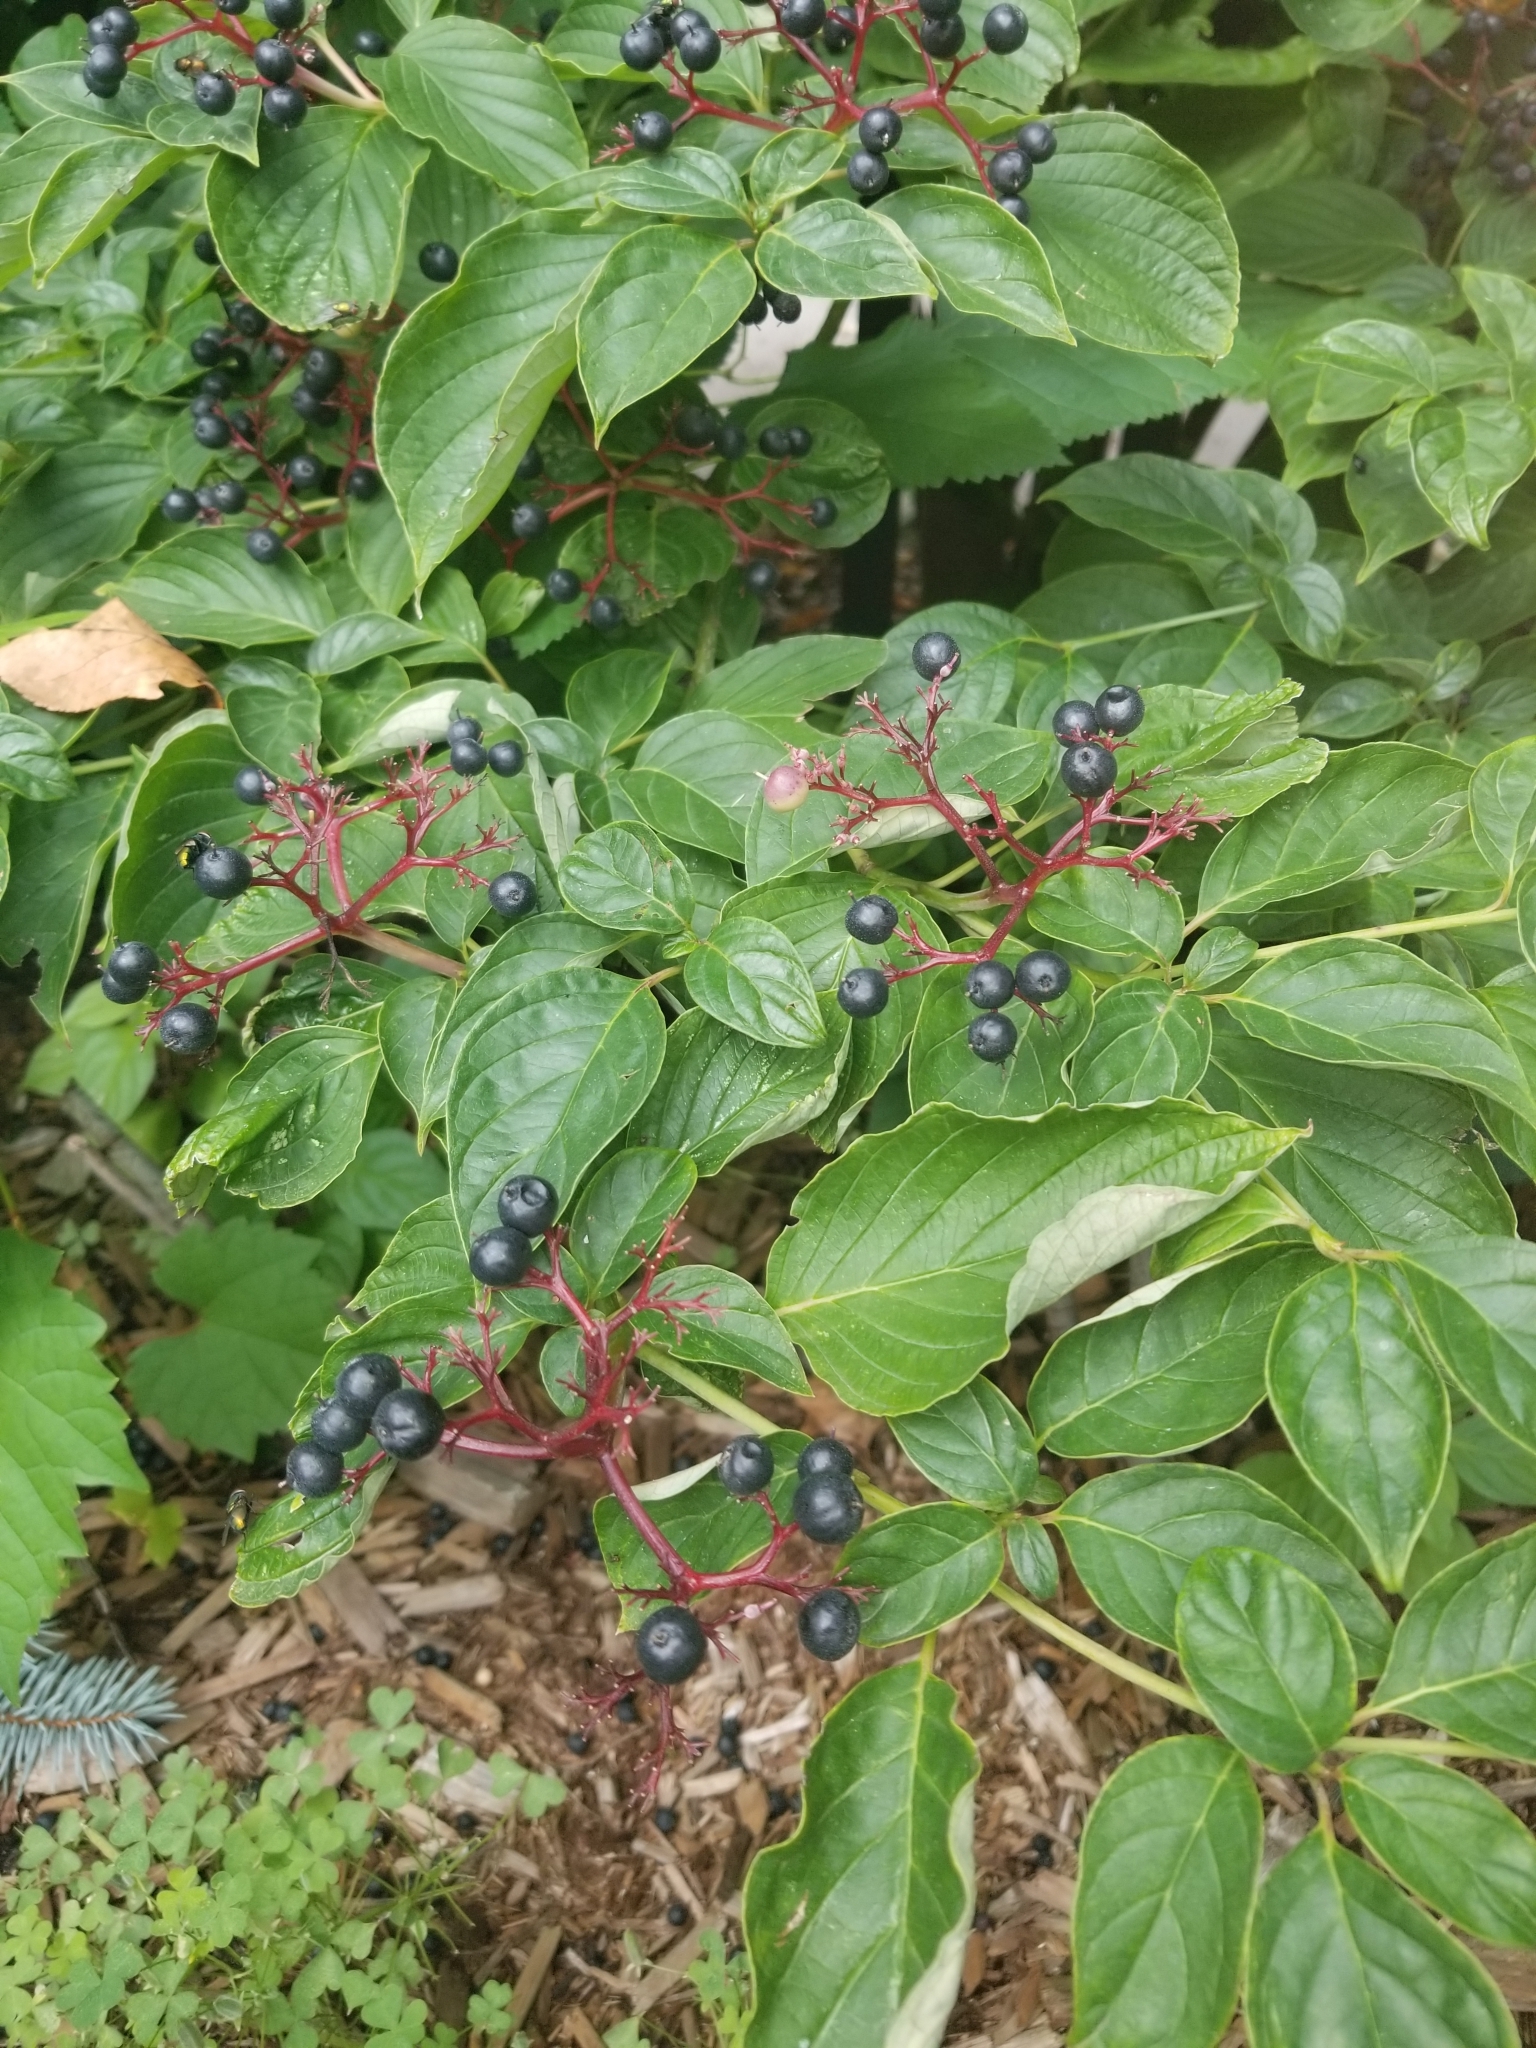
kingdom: Plantae
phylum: Tracheophyta
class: Magnoliopsida
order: Cornales
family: Cornaceae
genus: Cornus
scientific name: Cornus alternifolia
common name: Pagoda dogwood
